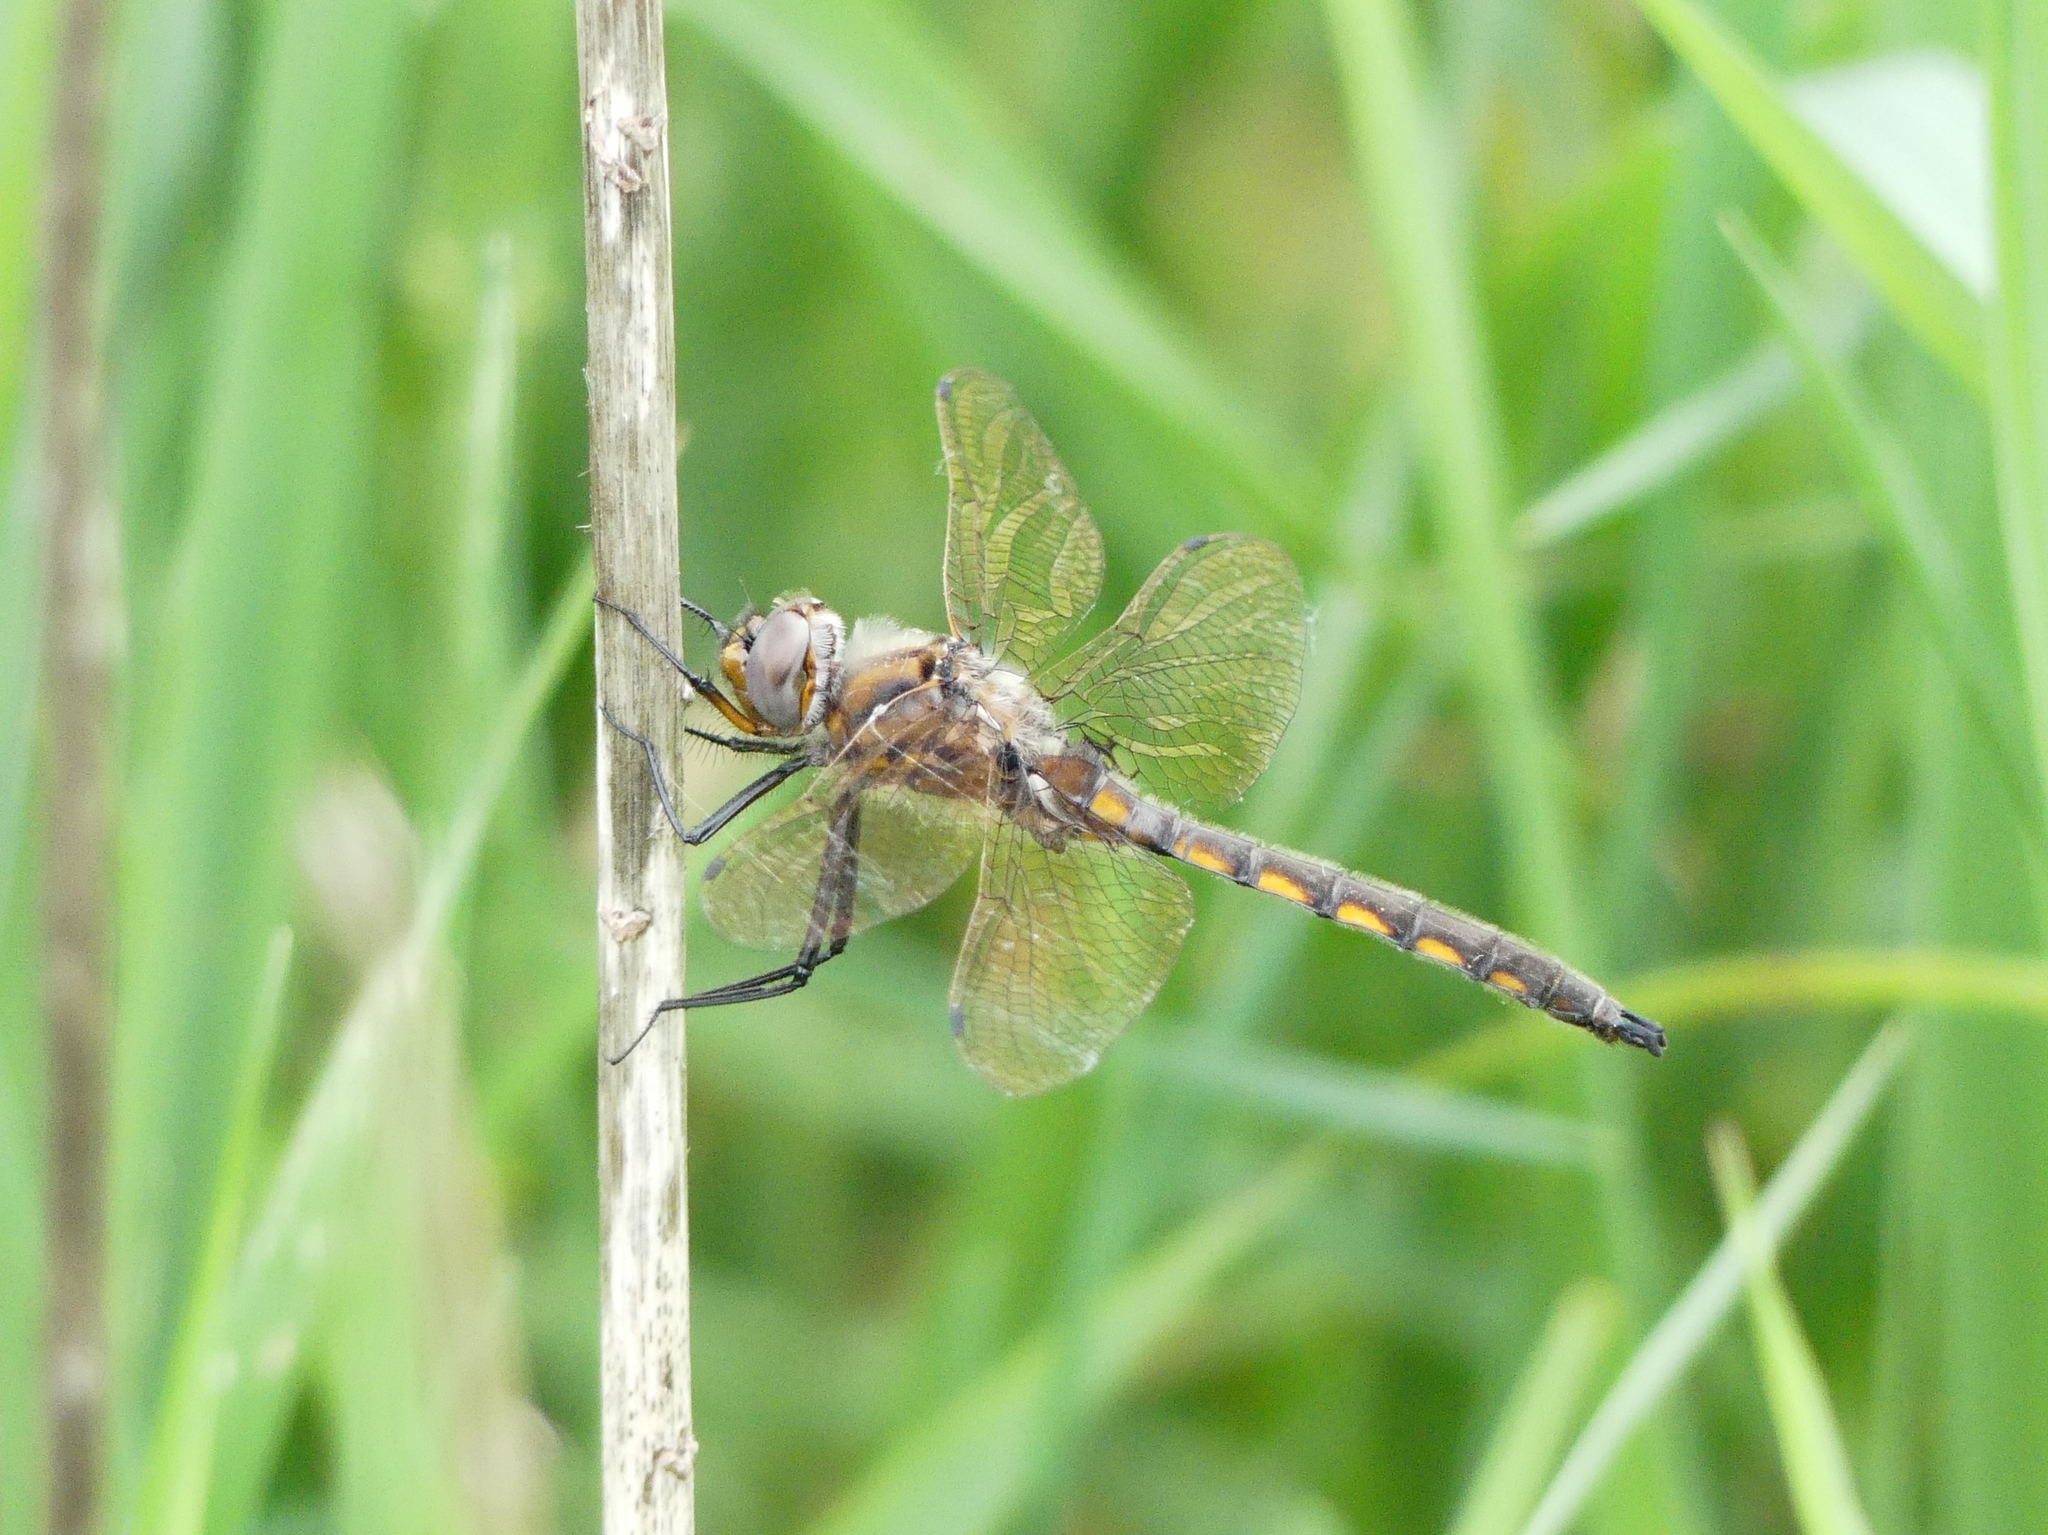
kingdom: Animalia
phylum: Arthropoda
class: Insecta
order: Odonata
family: Corduliidae
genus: Epitheca
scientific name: Epitheca canis
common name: Beaverpond baskettail
